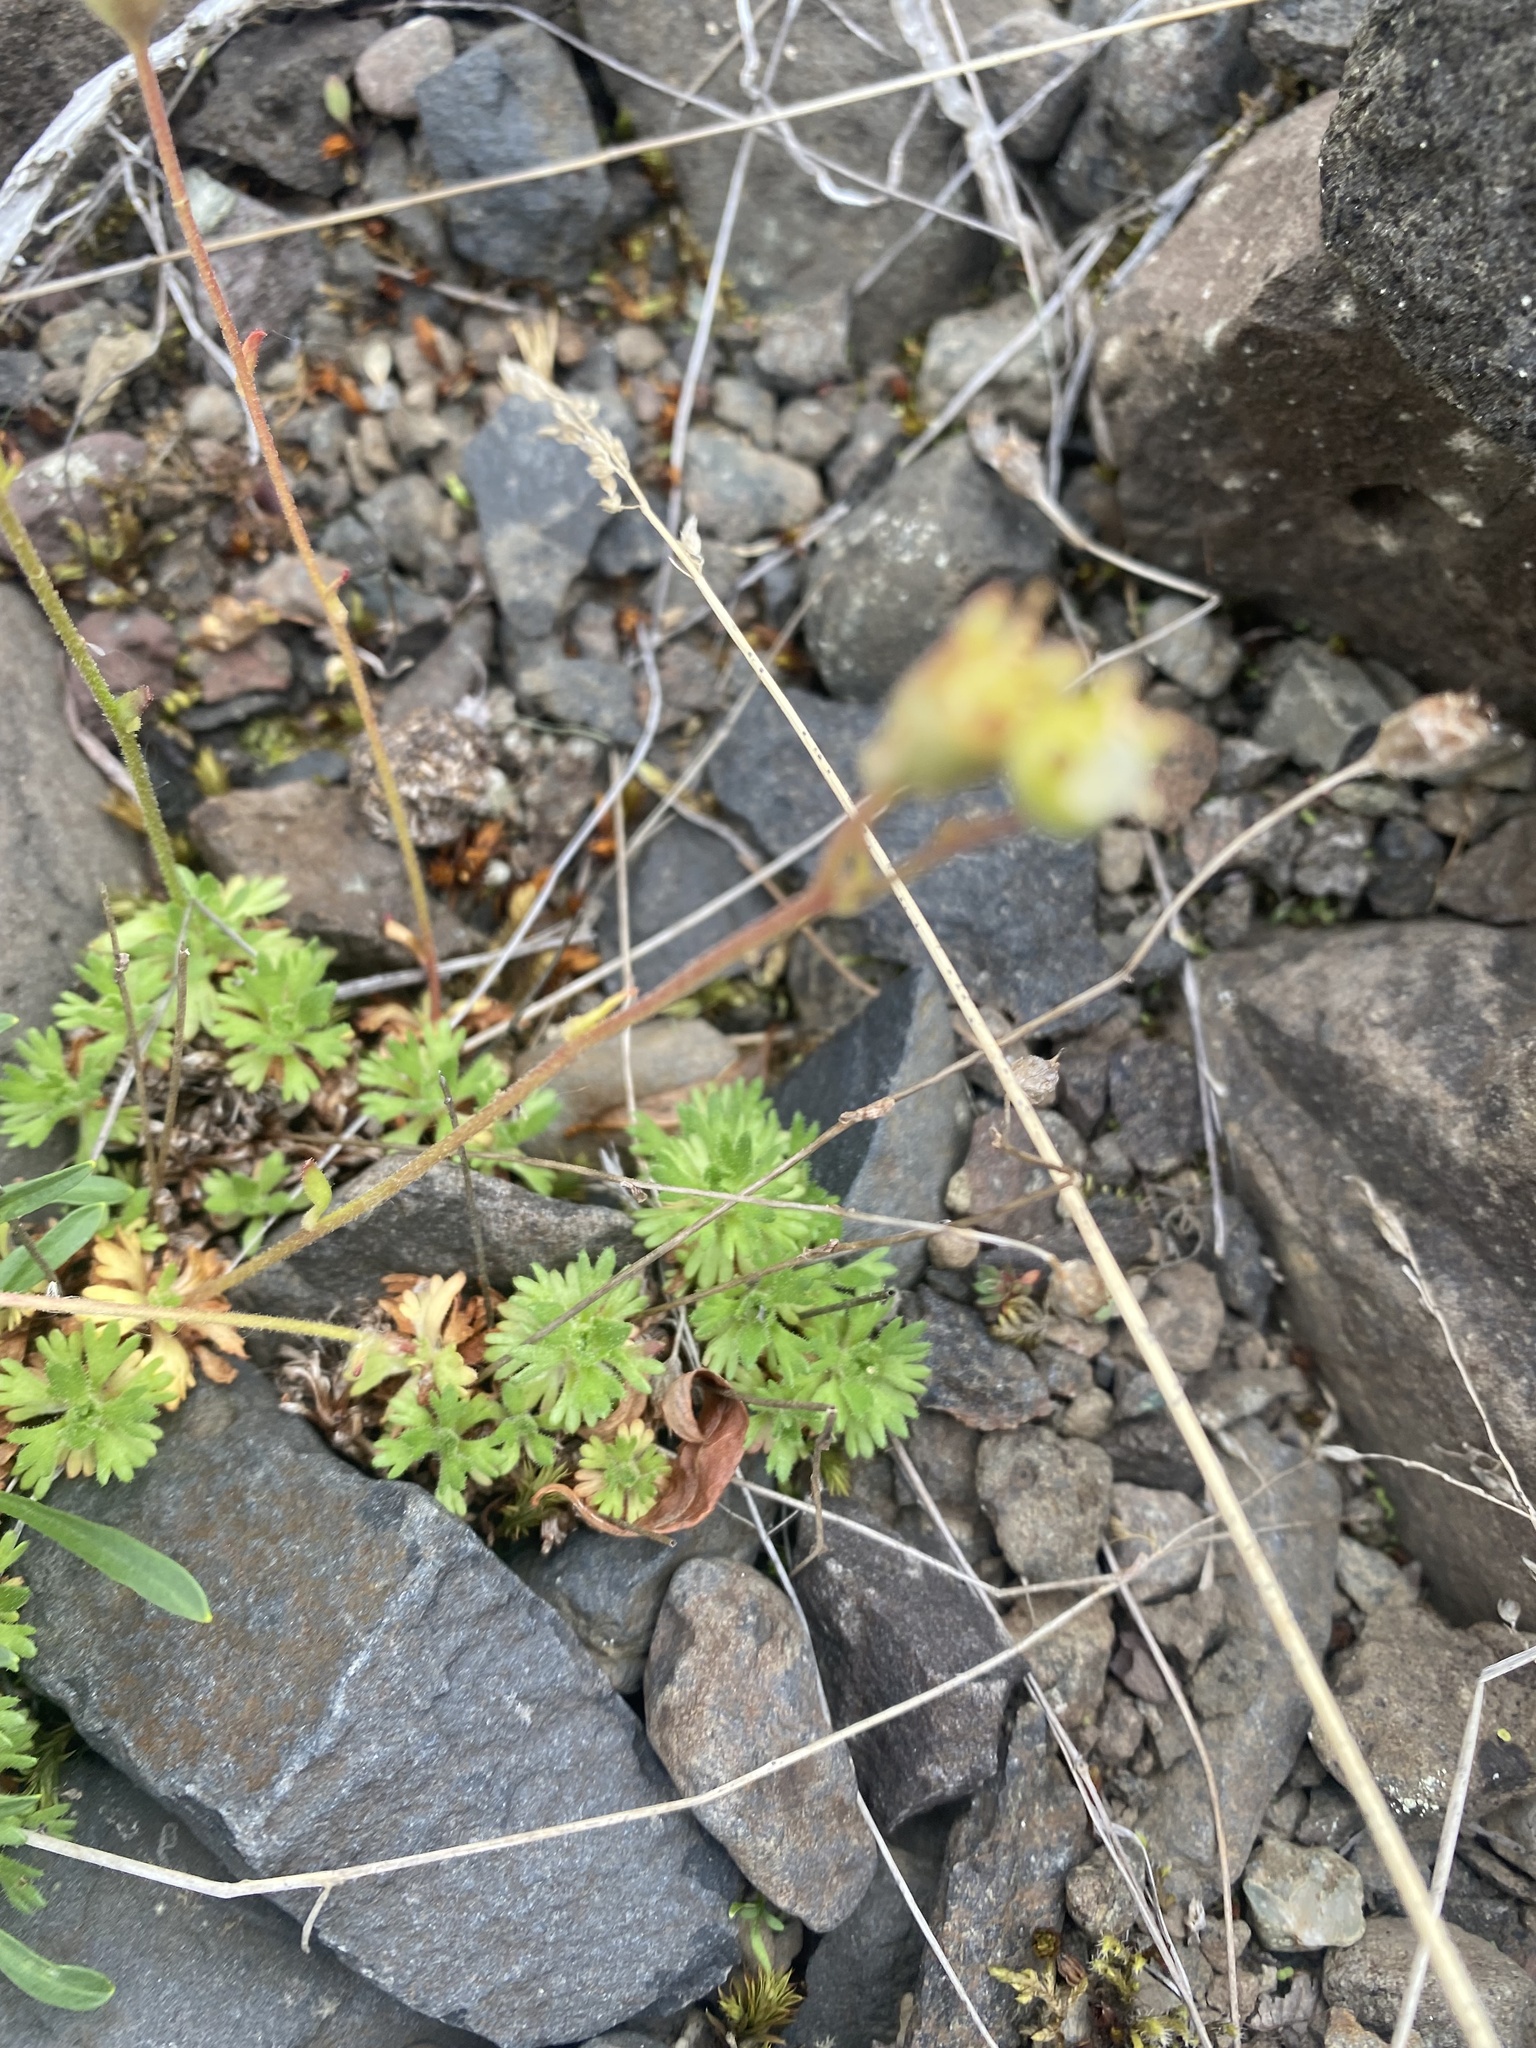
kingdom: Plantae
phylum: Tracheophyta
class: Magnoliopsida
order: Saxifragales
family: Saxifragaceae
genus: Saxifraga
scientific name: Saxifraga cespitosa
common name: Tufted saxifrage
